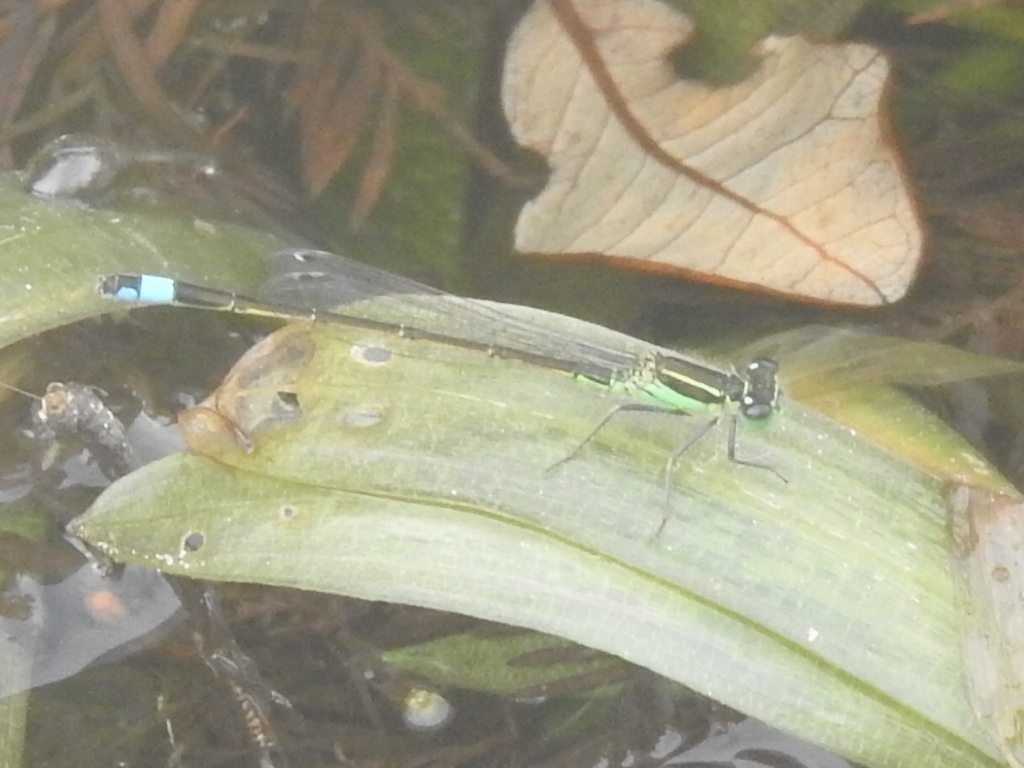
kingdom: Animalia
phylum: Arthropoda
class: Insecta
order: Odonata
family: Coenagrionidae
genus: Ischnura
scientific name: Ischnura ramburii
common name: Rambur's forktail
